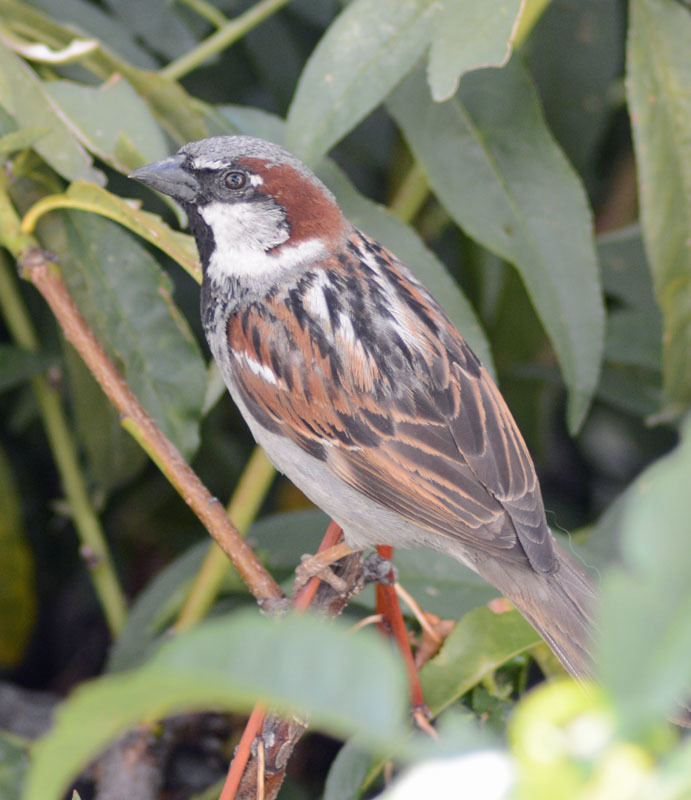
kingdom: Animalia
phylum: Chordata
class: Aves
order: Passeriformes
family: Passeridae
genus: Passer
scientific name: Passer domesticus
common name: House sparrow
